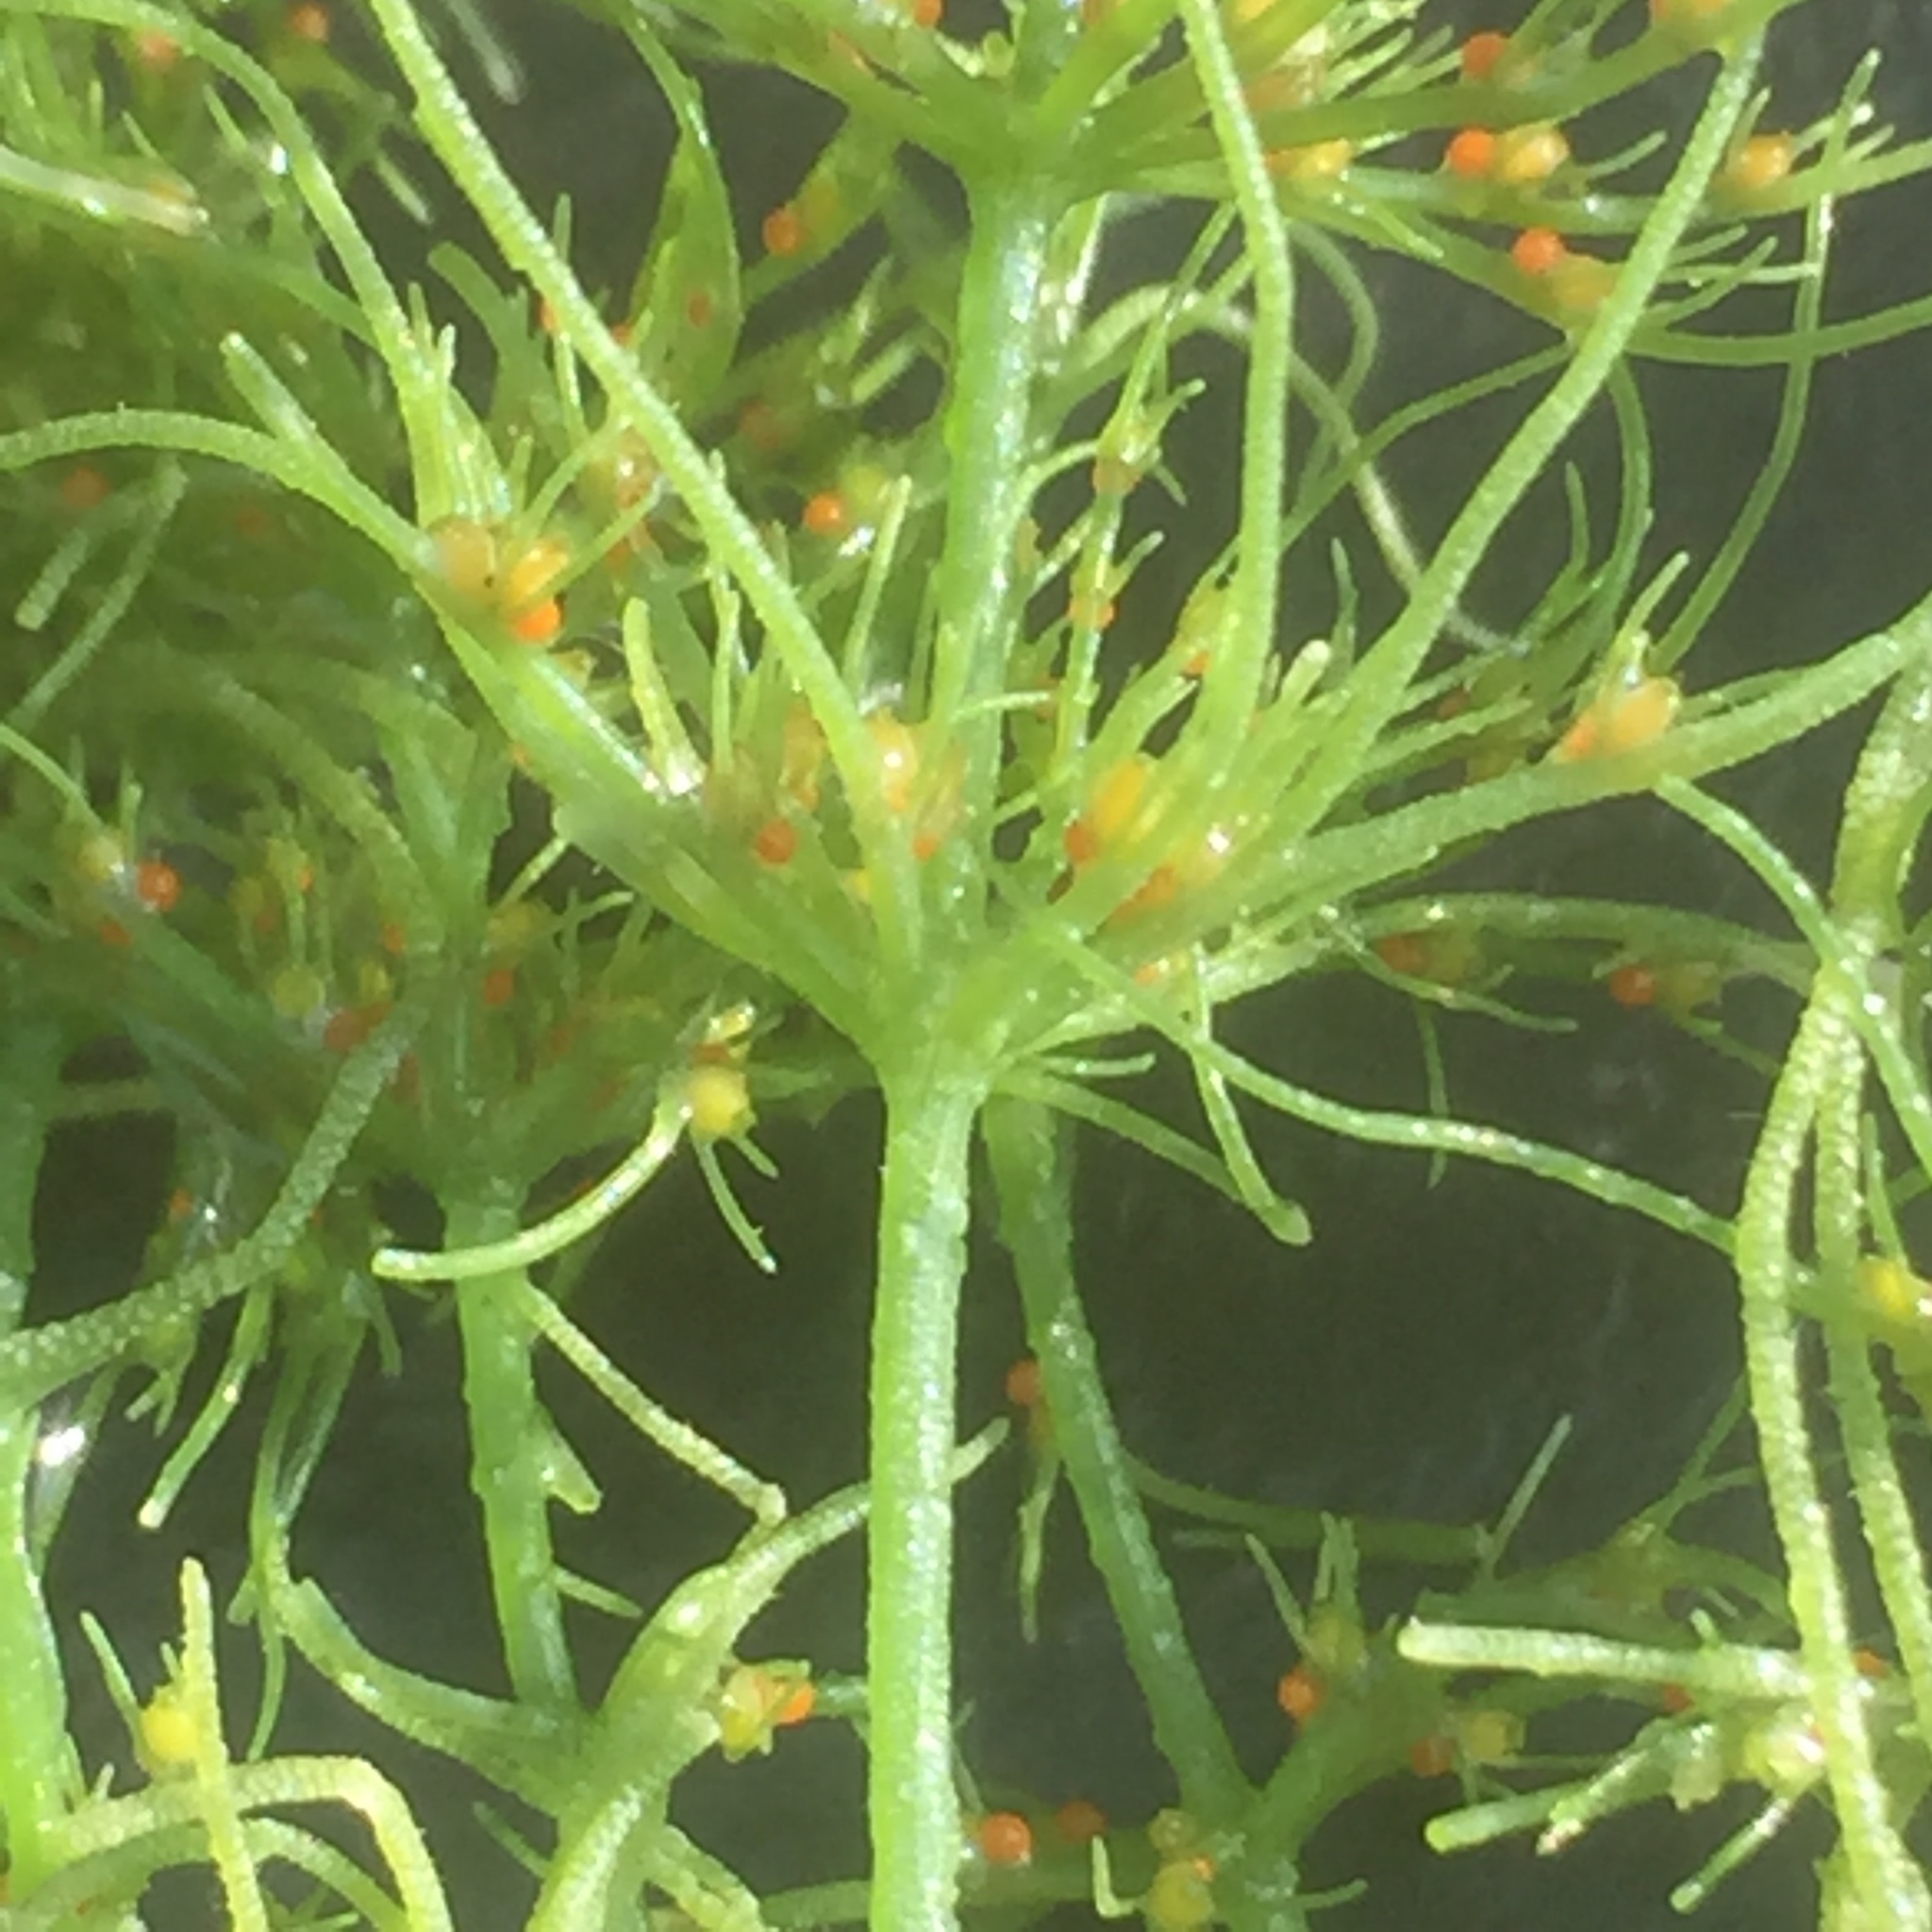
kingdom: Plantae
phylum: Charophyta
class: Charophyceae
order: Charales
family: Characeae
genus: Chara
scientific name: Chara vulgaris
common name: Common stonewort
